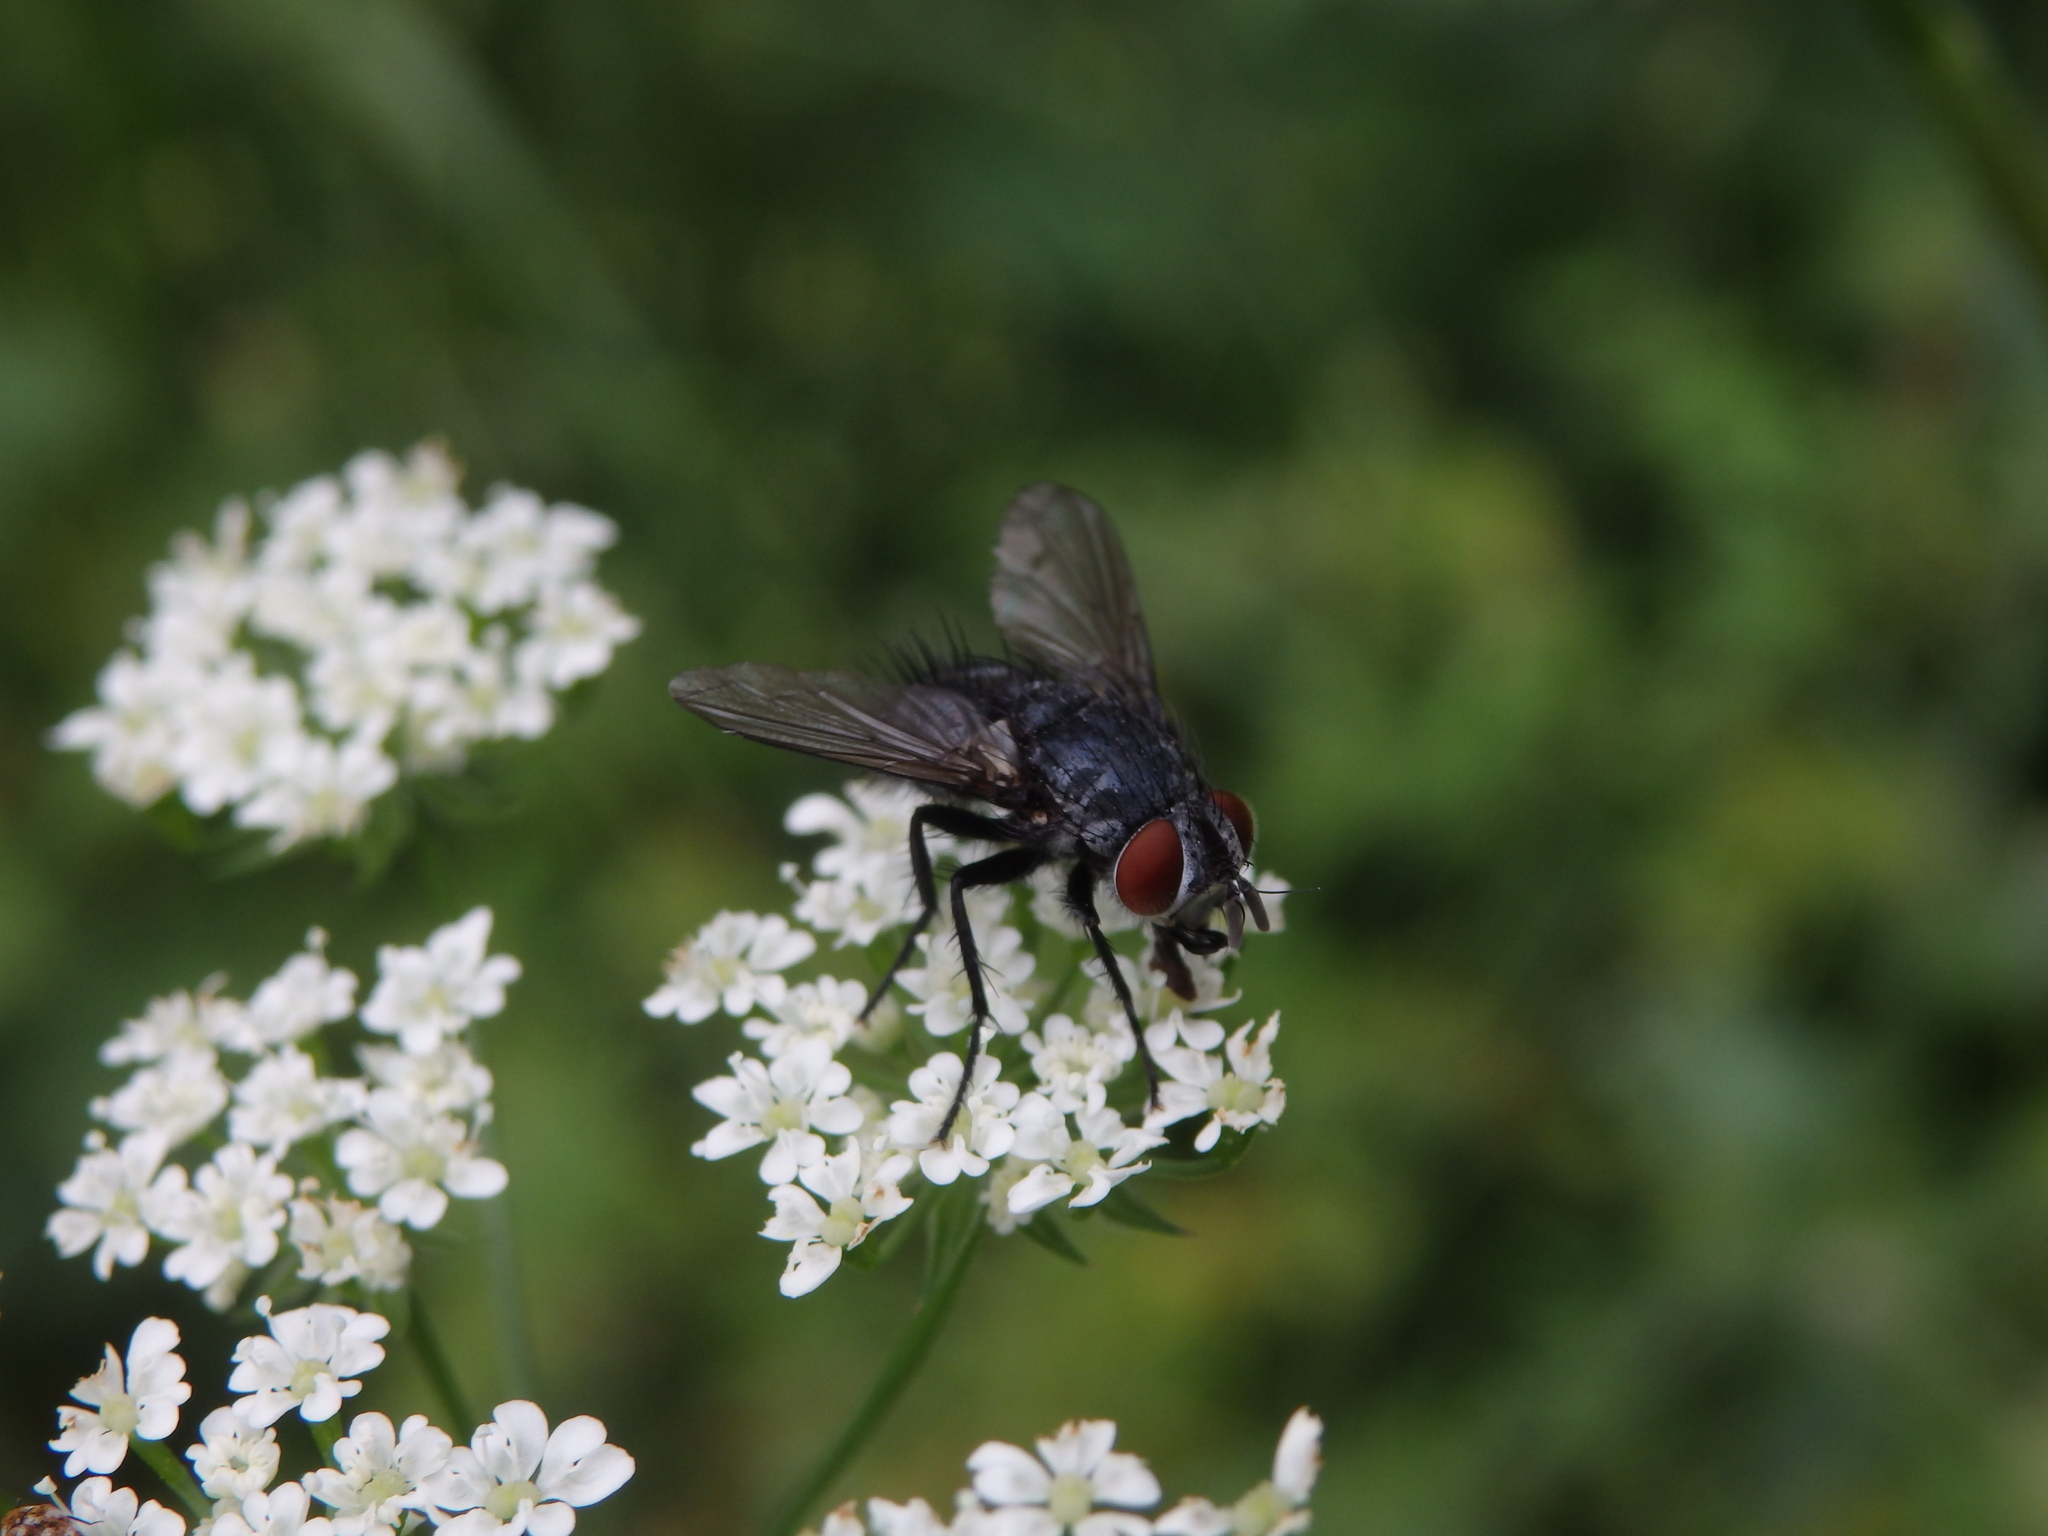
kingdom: Animalia
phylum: Arthropoda
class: Insecta
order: Diptera
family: Tachinidae
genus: Epicampocera
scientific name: Epicampocera succincta
